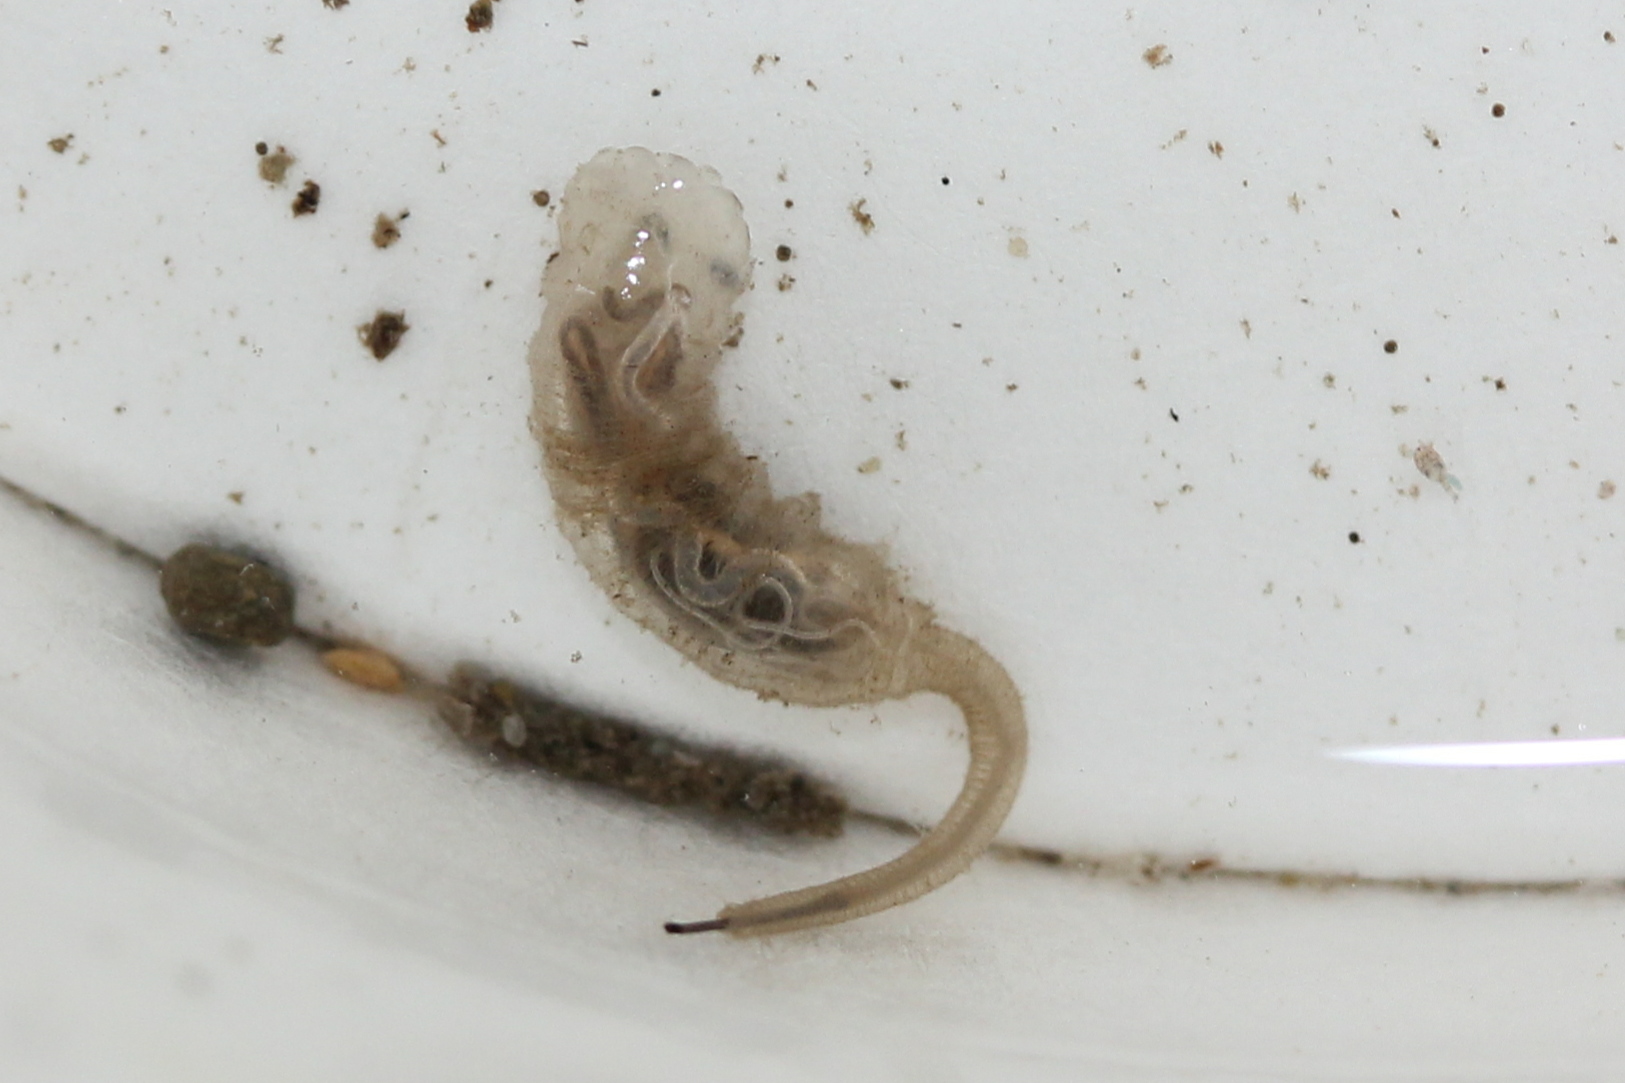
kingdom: Animalia
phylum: Arthropoda
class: Insecta
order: Diptera
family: Syrphidae
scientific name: Syrphidae
